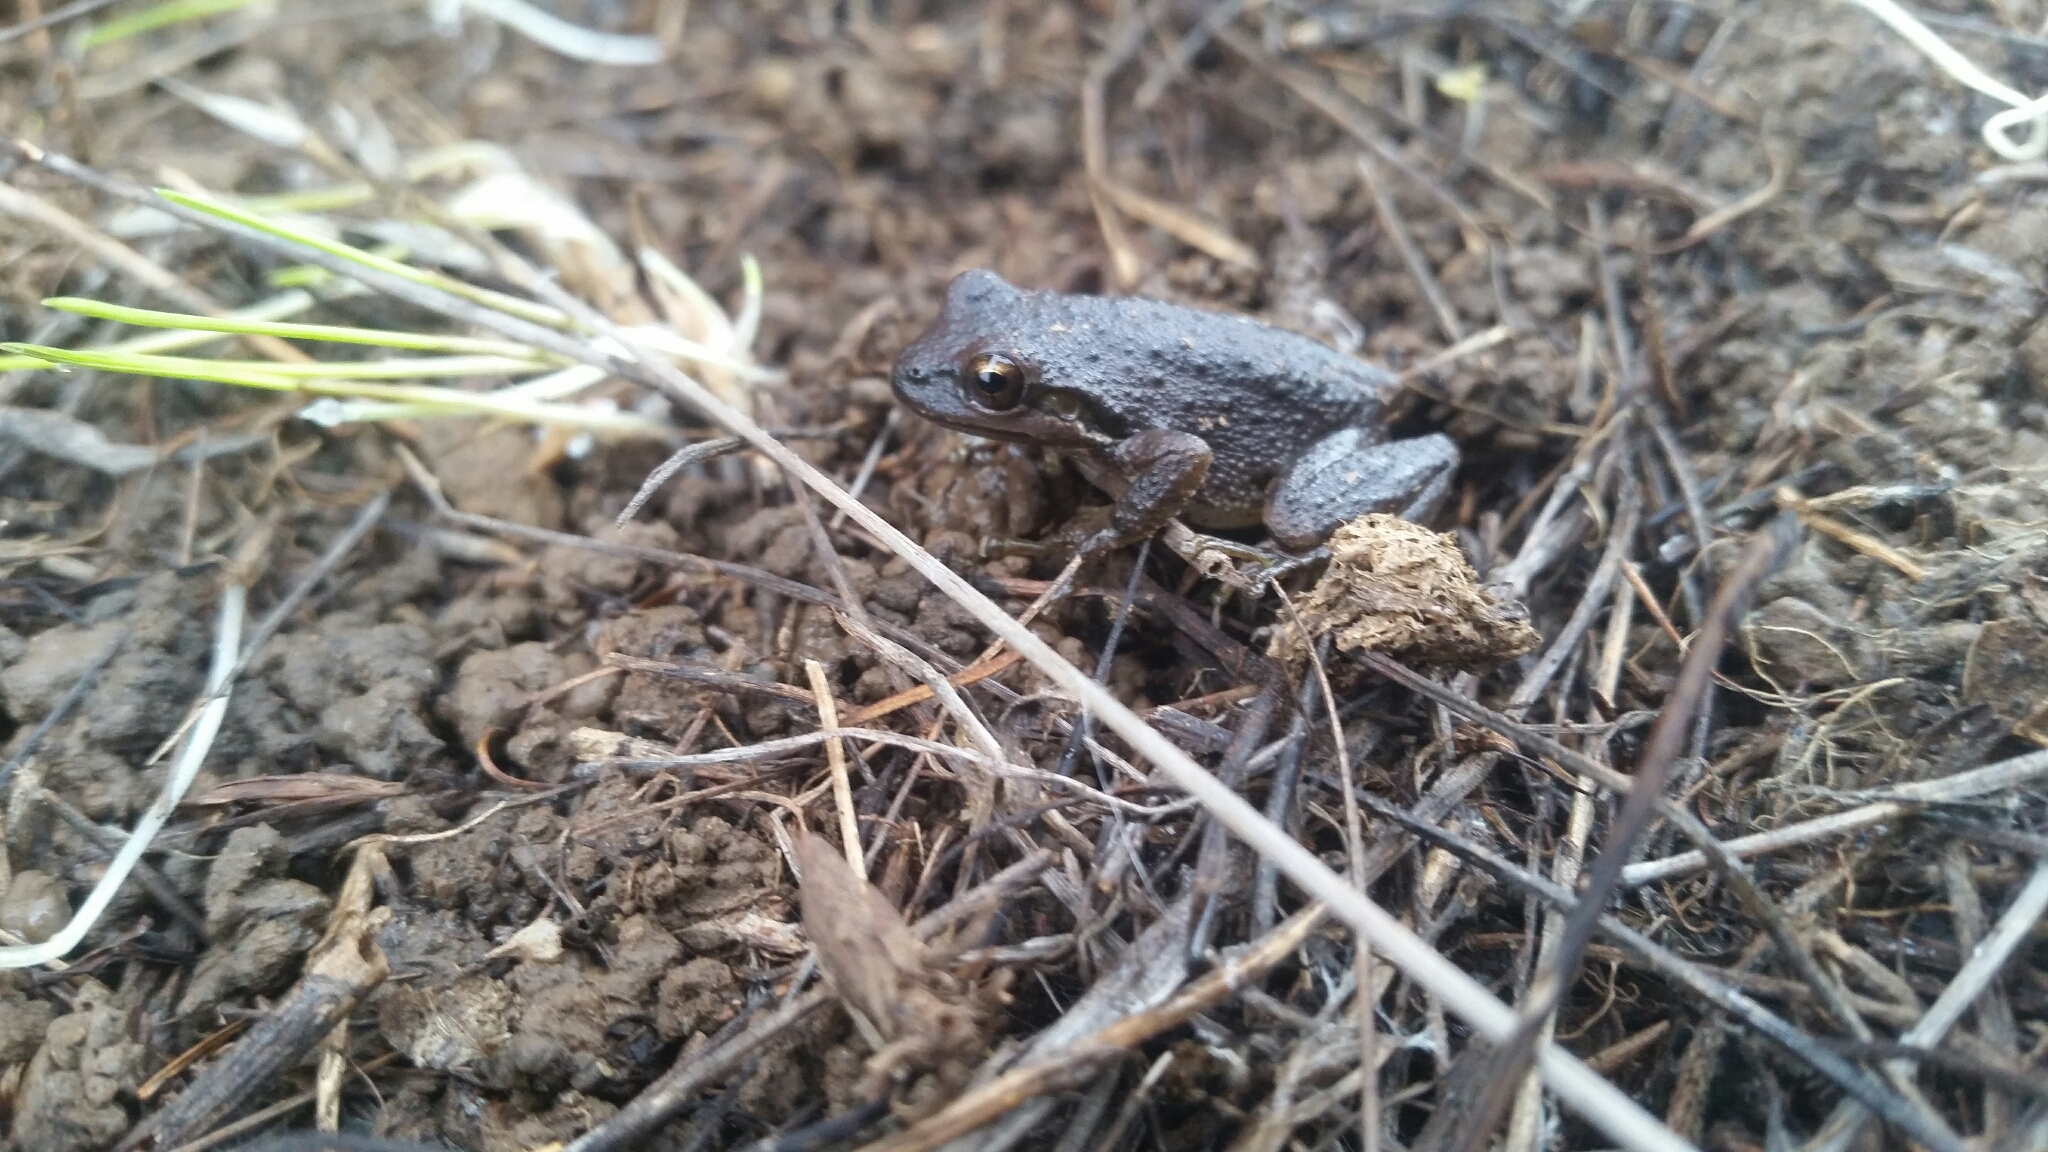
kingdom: Animalia
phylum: Chordata
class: Amphibia
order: Anura
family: Hylidae
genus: Pseudacris
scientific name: Pseudacris regilla
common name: Pacific chorus frog
